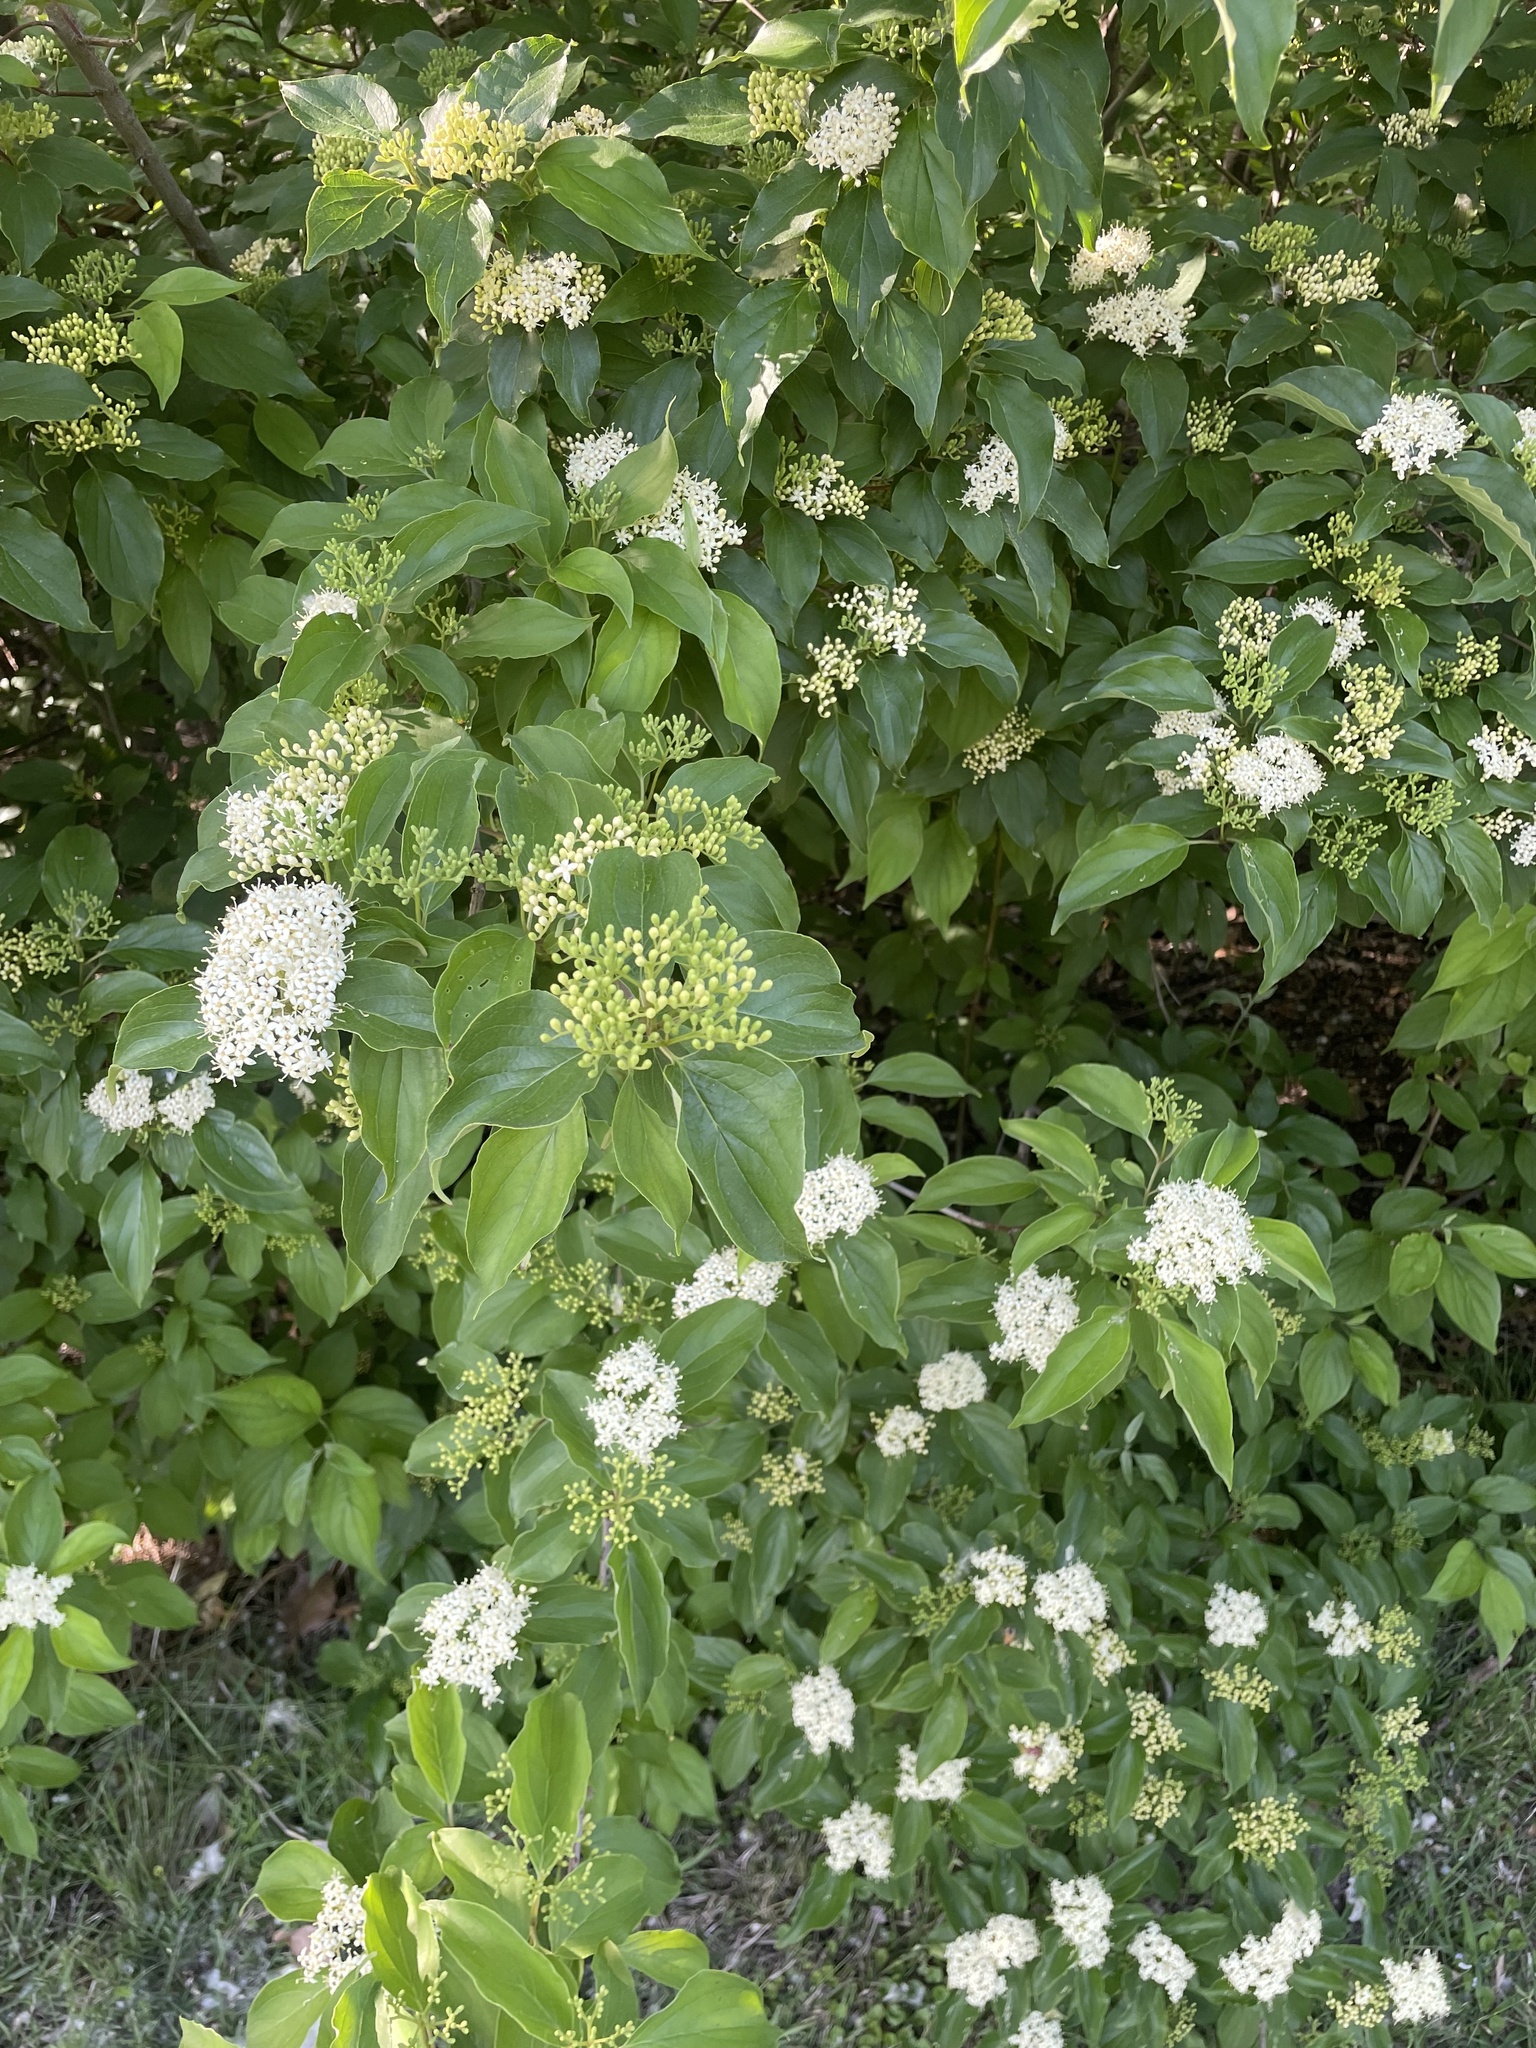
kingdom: Plantae
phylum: Tracheophyta
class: Magnoliopsida
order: Cornales
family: Cornaceae
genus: Cornus
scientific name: Cornus drummondii
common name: Rough-leaf dogwood
